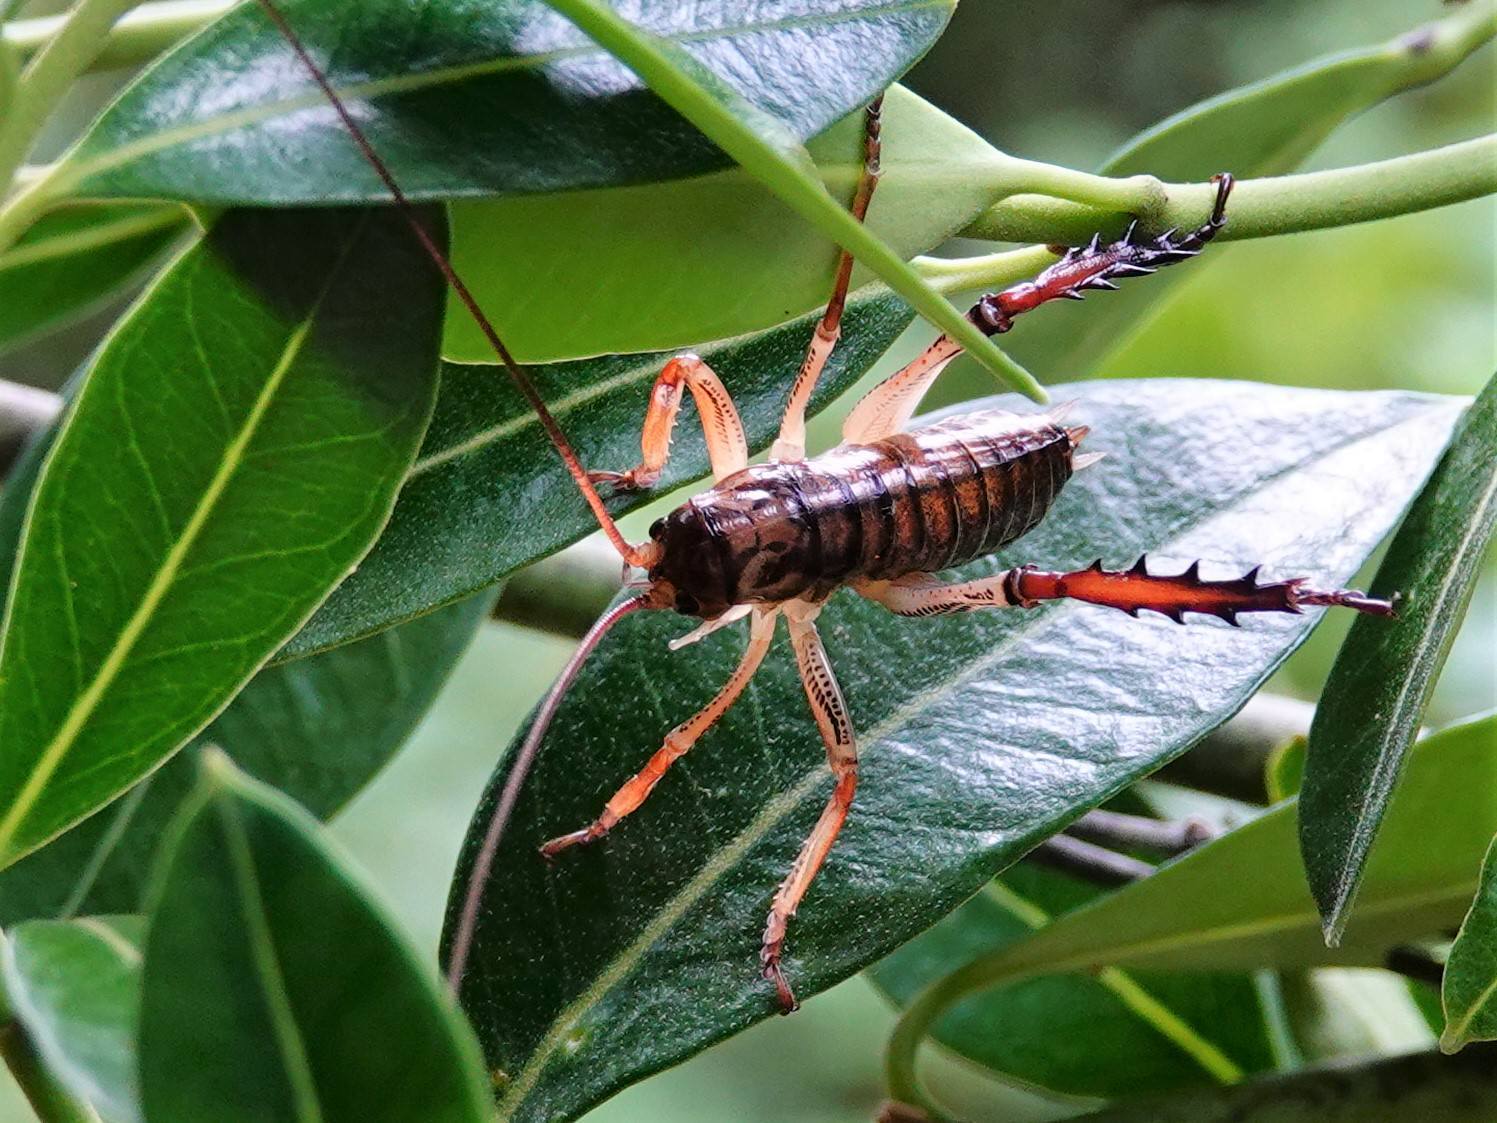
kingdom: Animalia
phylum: Arthropoda
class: Insecta
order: Orthoptera
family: Anostostomatidae
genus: Hemideina
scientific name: Hemideina thoracica
